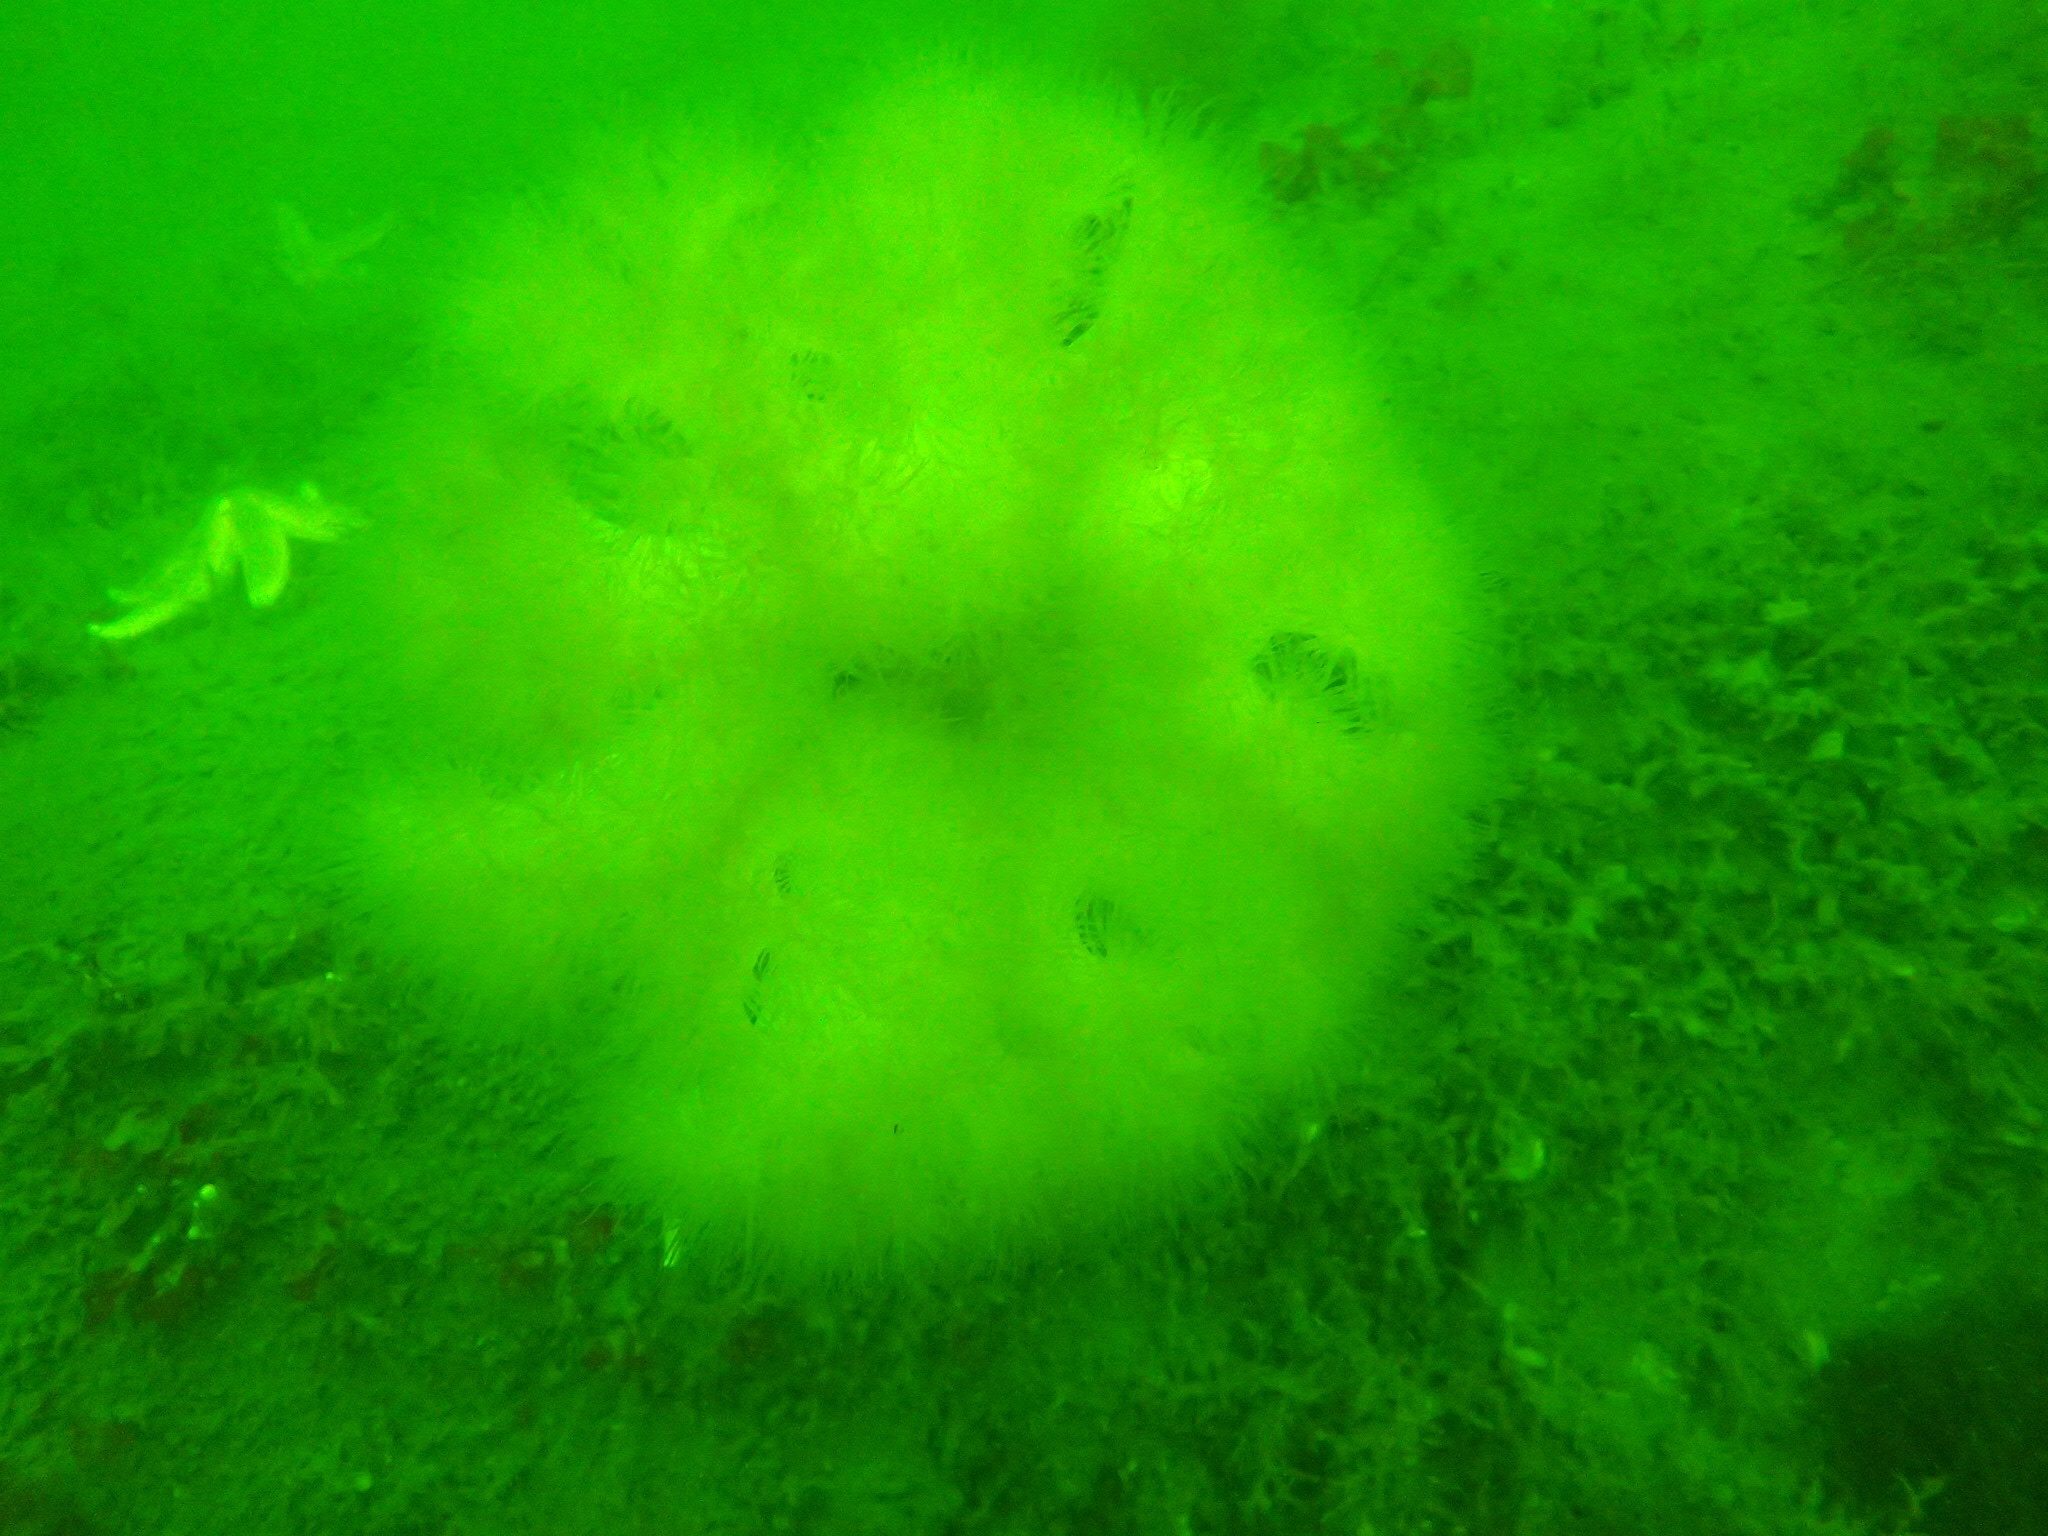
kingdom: Animalia
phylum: Cnidaria
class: Anthozoa
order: Actiniaria
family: Metridiidae
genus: Metridium
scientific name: Metridium senile
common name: Clonal plumose anemone
